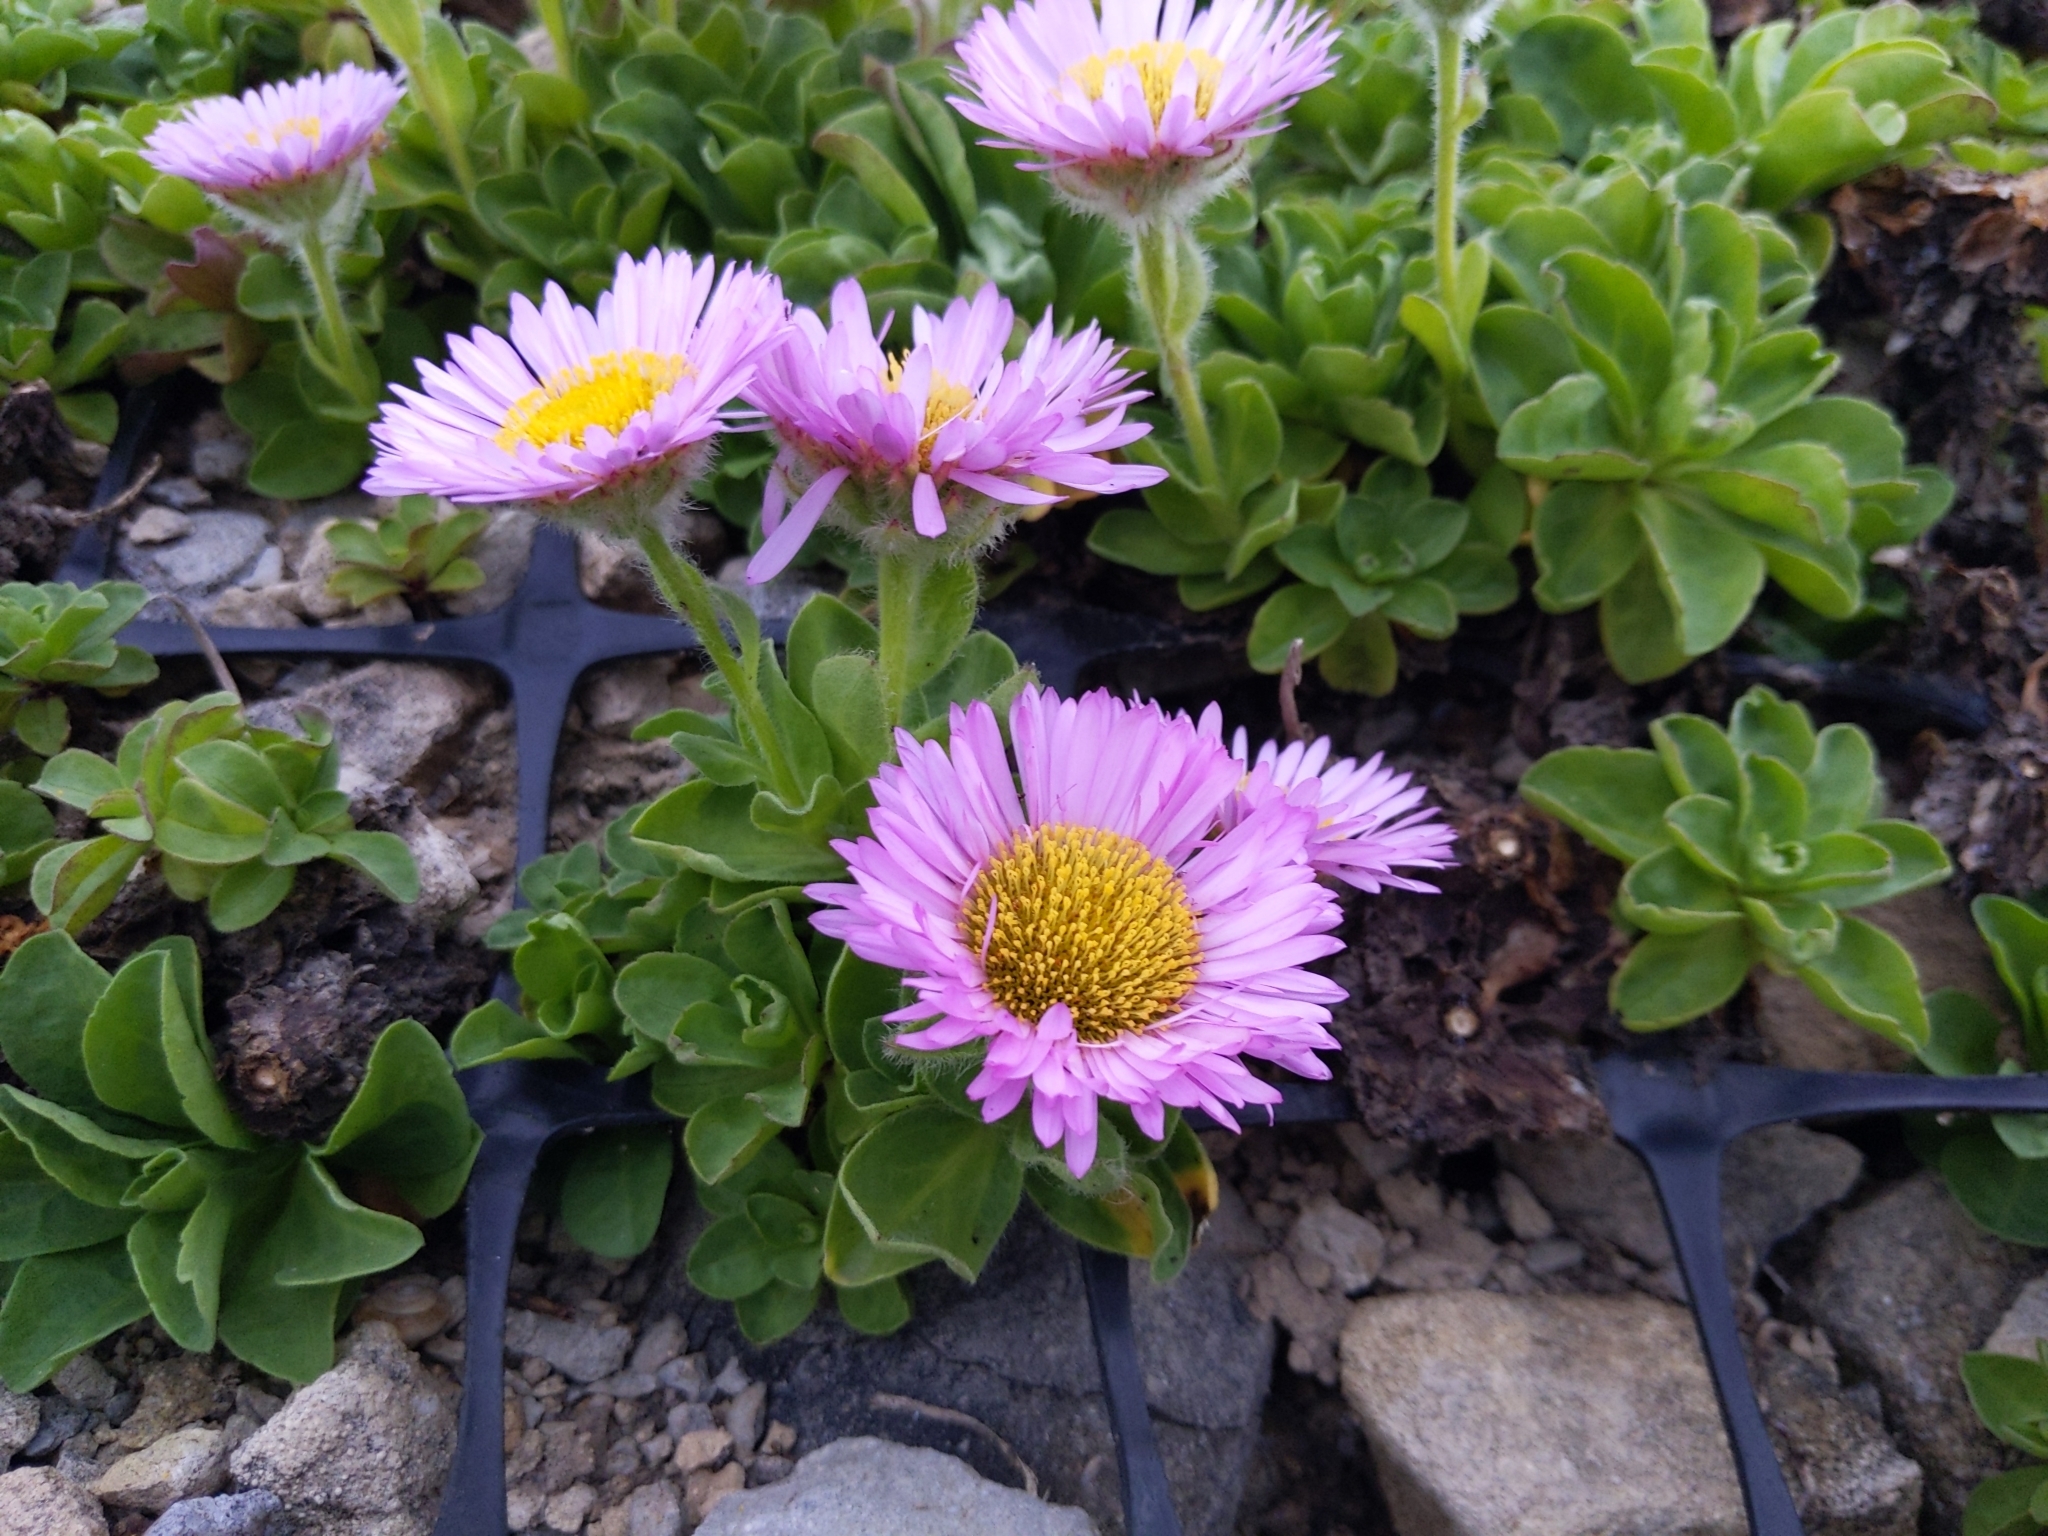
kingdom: Plantae
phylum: Tracheophyta
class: Magnoliopsida
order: Asterales
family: Asteraceae
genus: Erigeron
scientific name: Erigeron glaucus
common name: Seaside daisy
